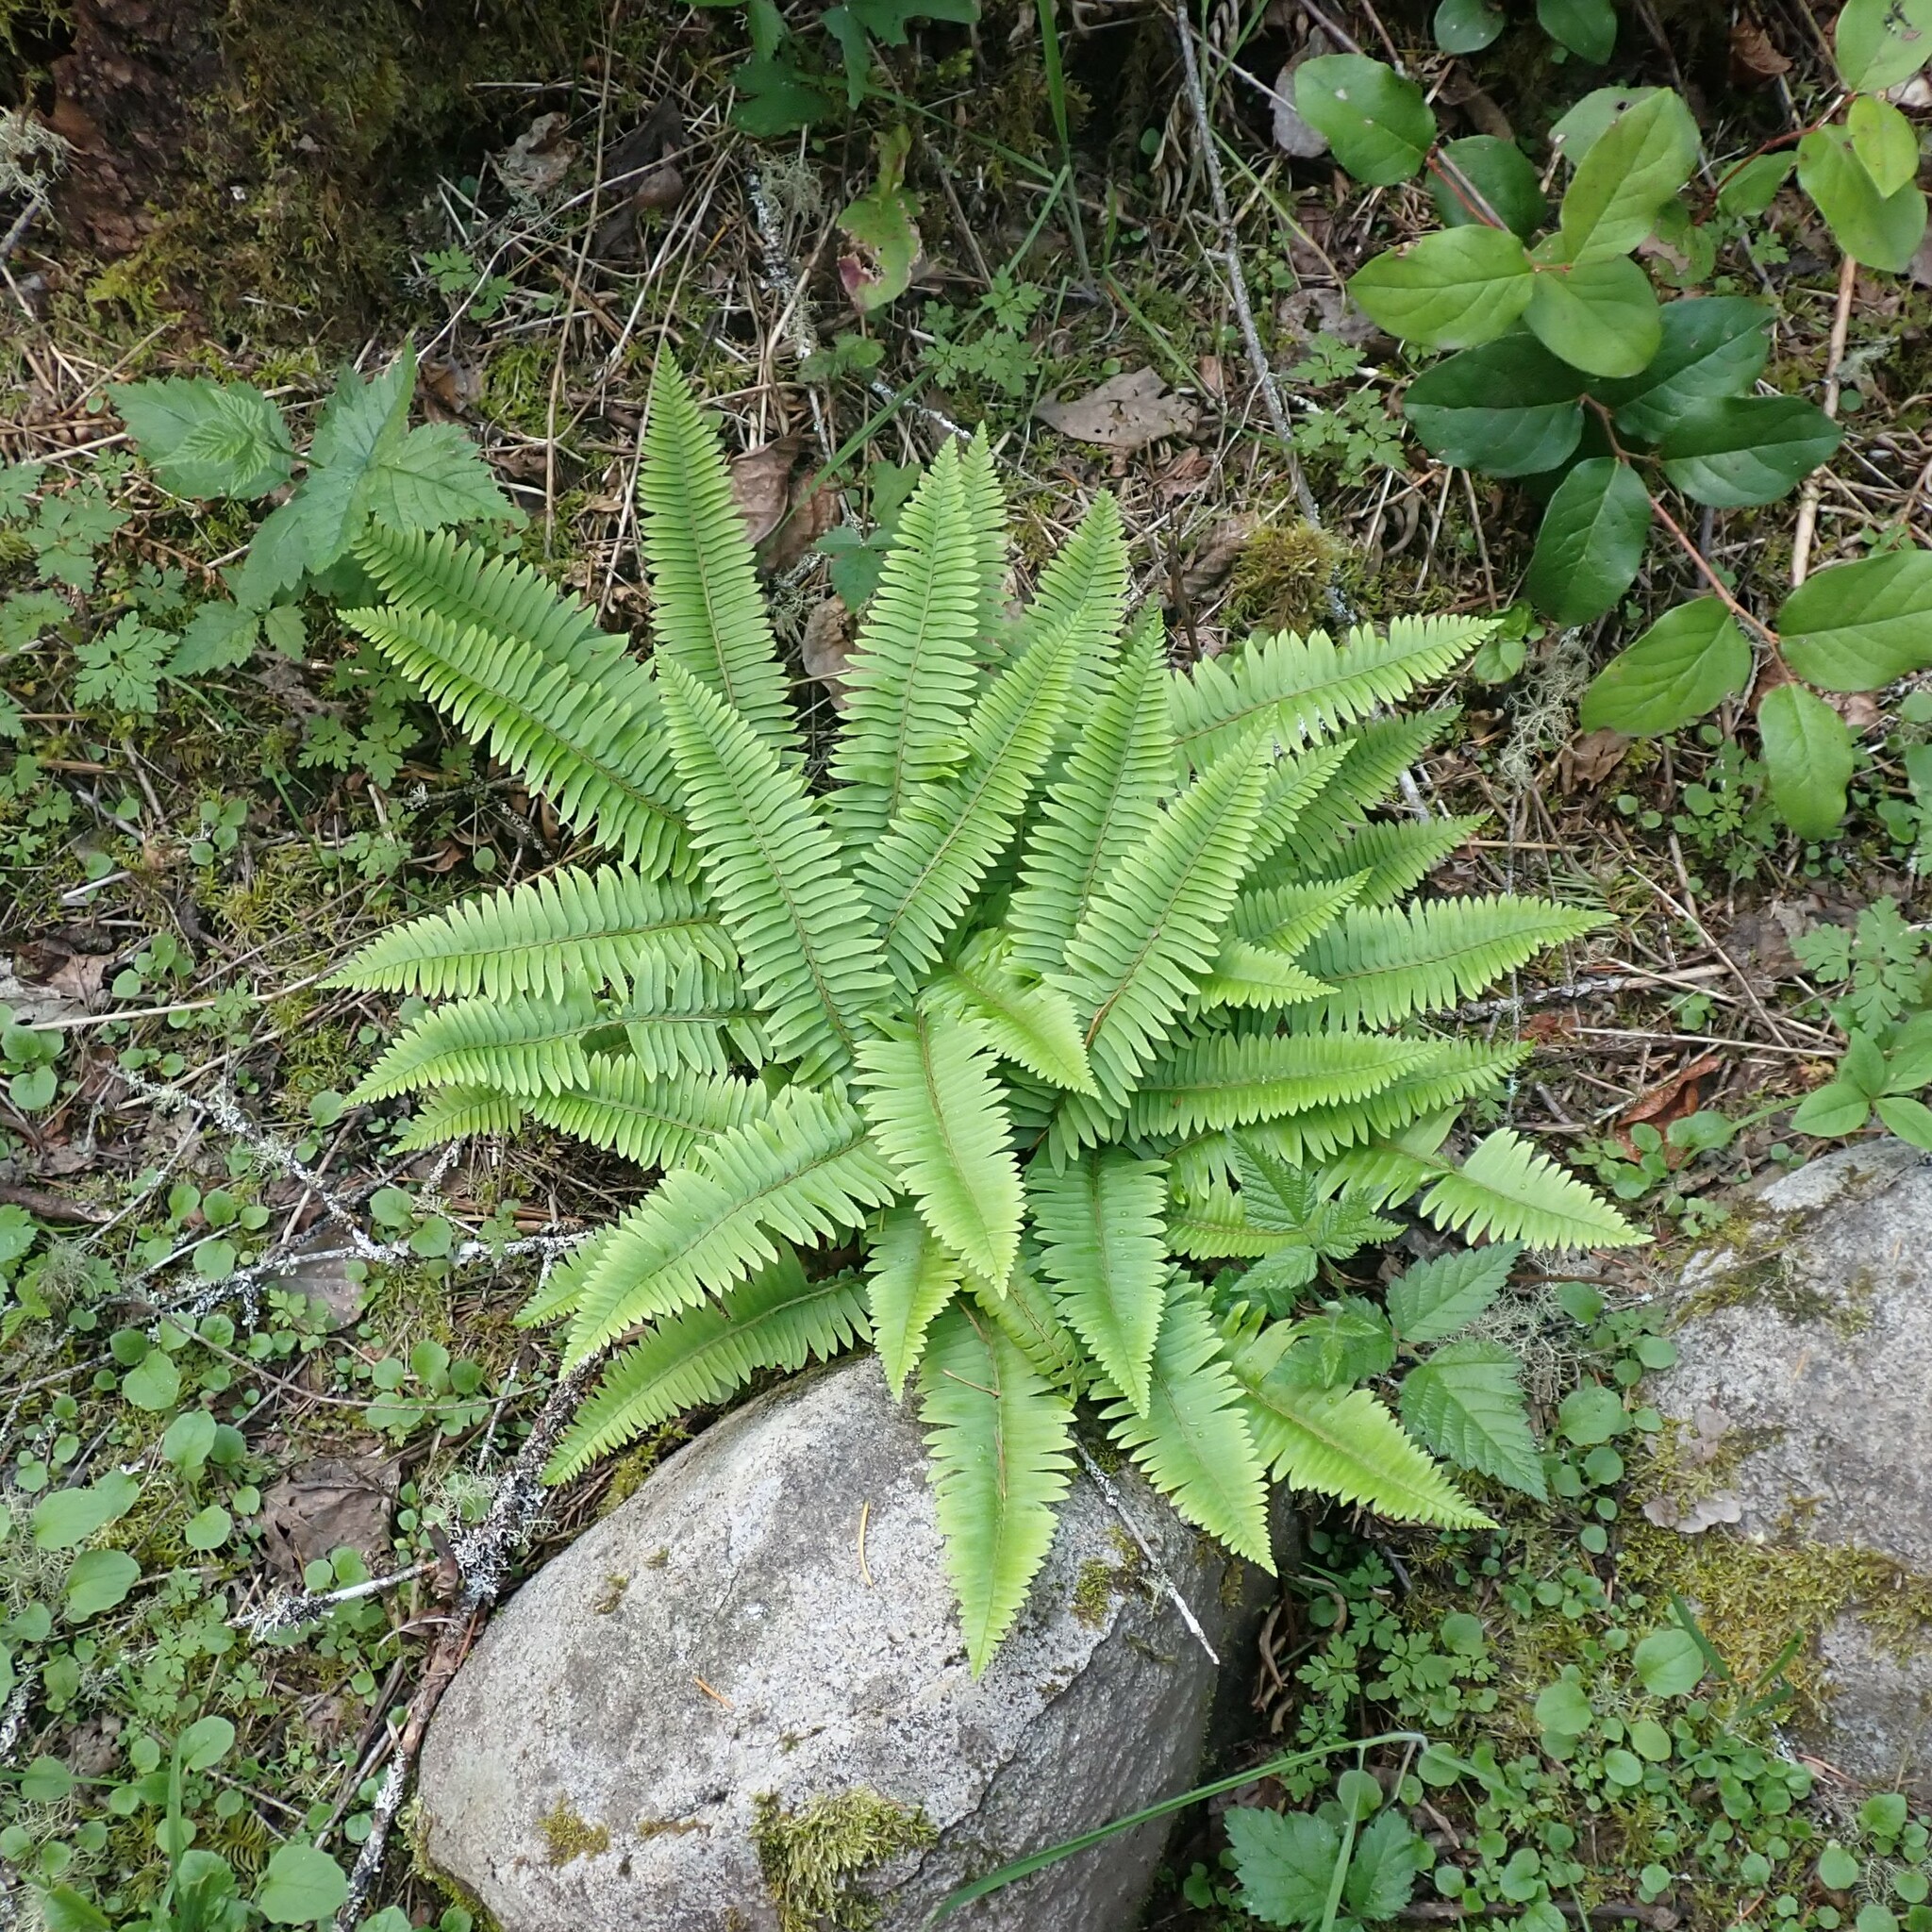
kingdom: Plantae
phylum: Tracheophyta
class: Polypodiopsida
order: Polypodiales
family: Dryopteridaceae
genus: Polystichum
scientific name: Polystichum munitum
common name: Western sword-fern
